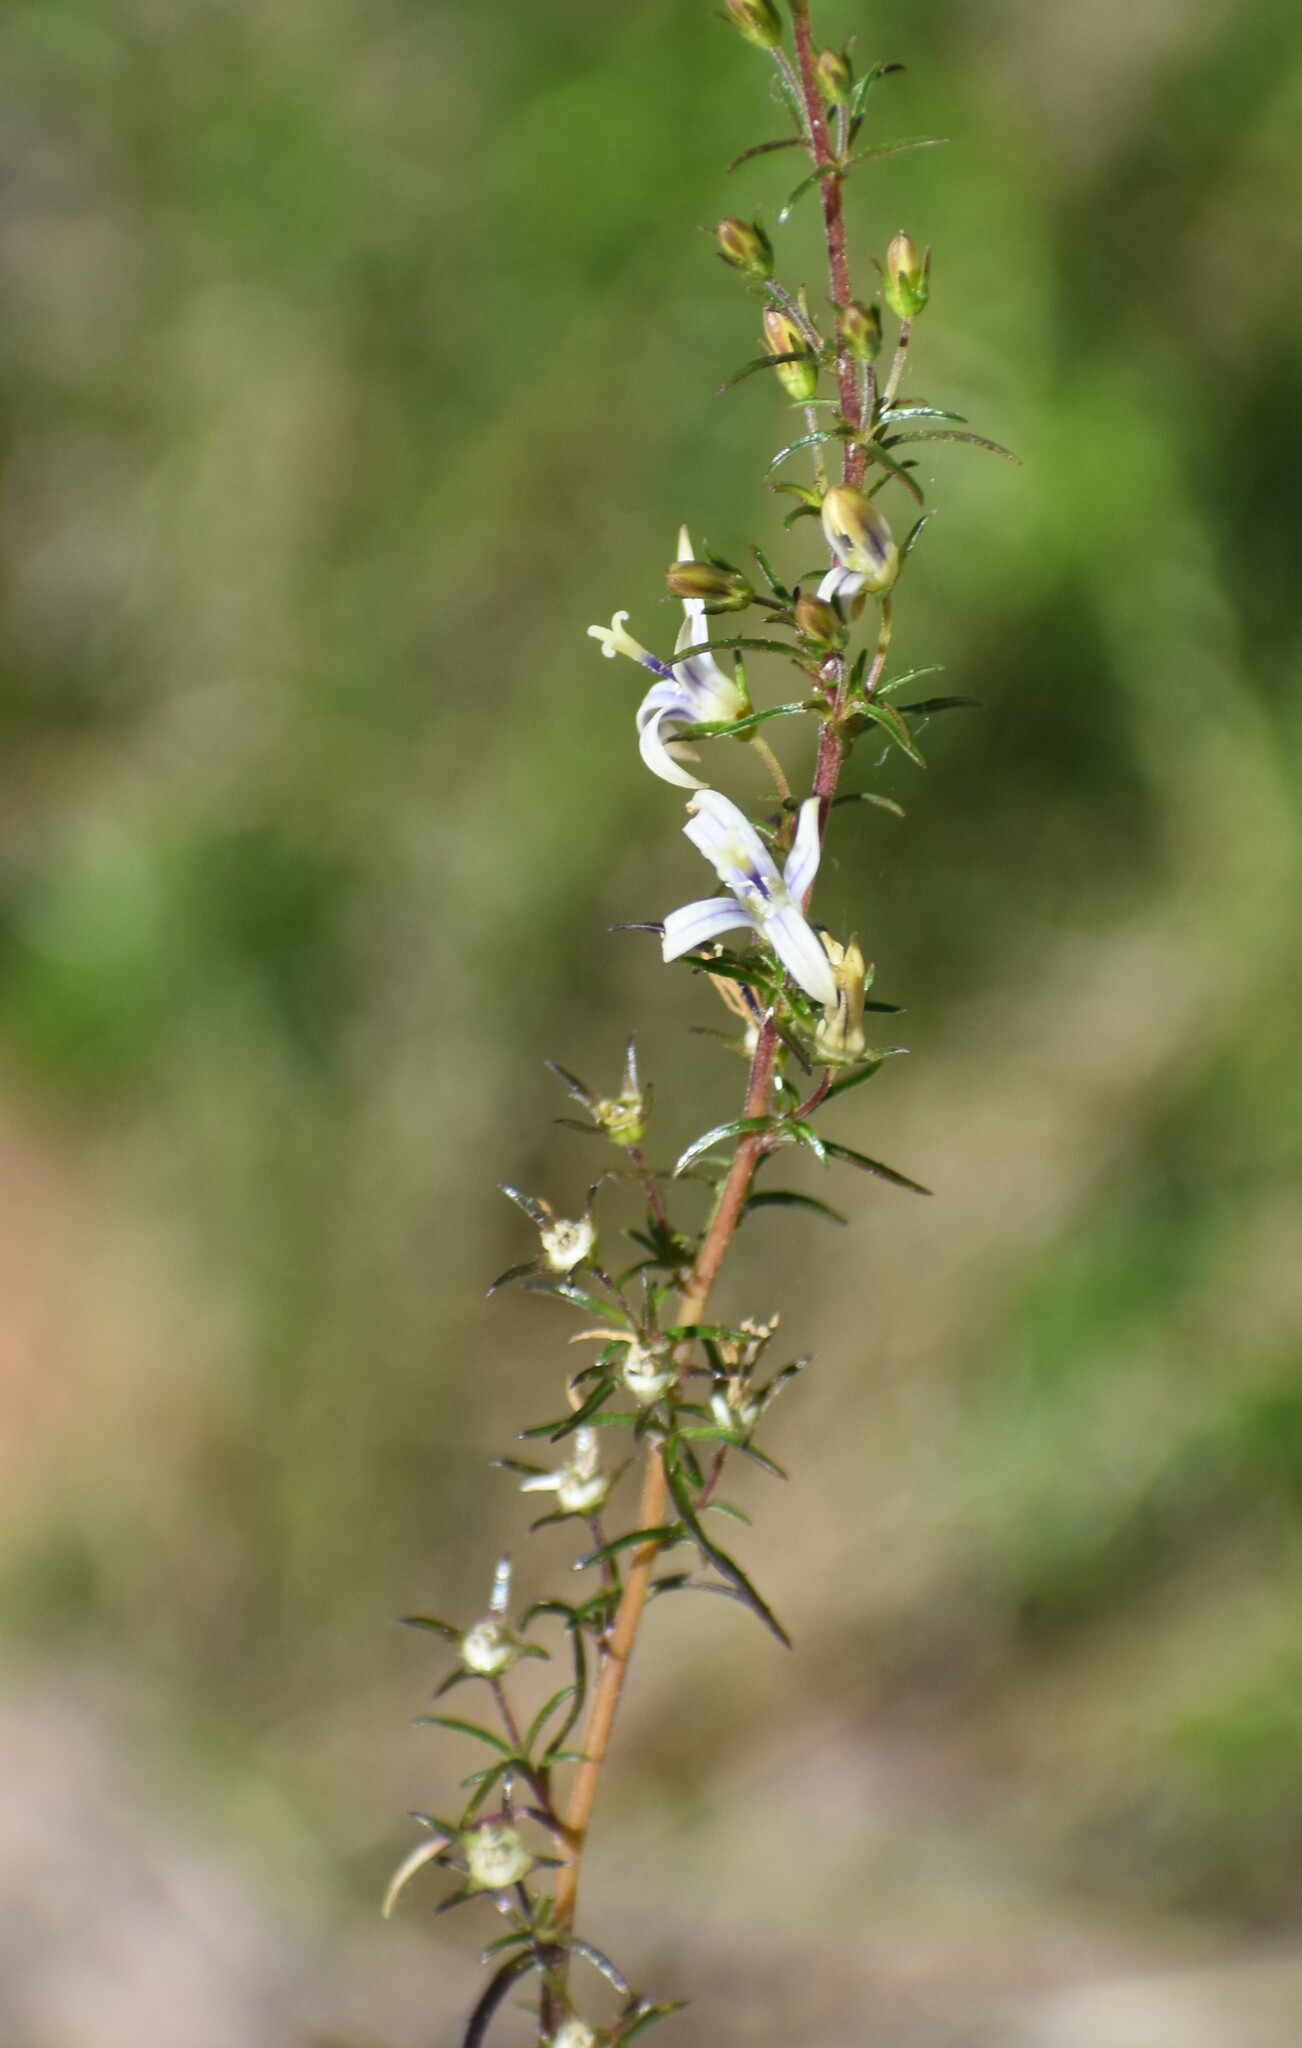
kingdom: Plantae
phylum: Tracheophyta
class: Magnoliopsida
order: Asterales
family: Campanulaceae
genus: Wahlenbergia
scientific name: Wahlenbergia neostricta
